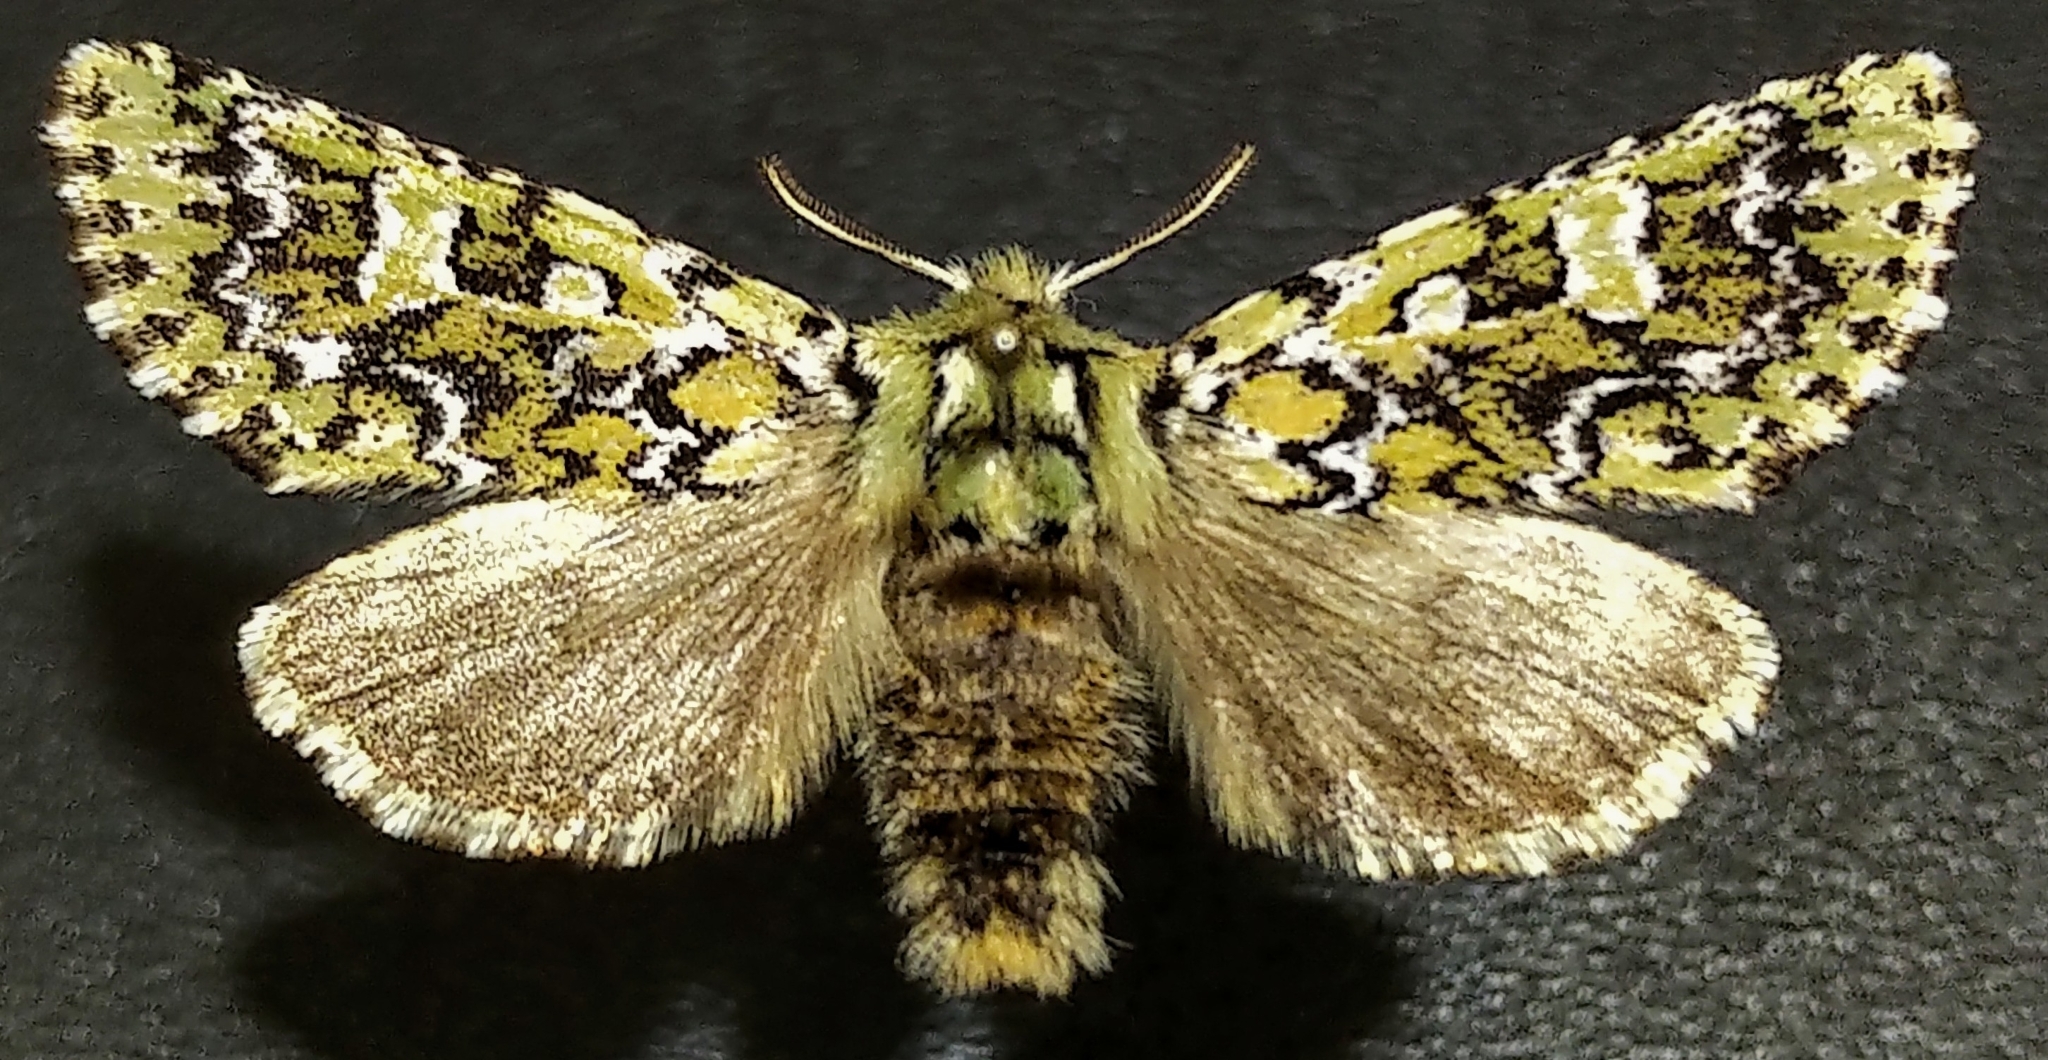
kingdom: Animalia
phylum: Arthropoda
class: Insecta
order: Lepidoptera
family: Noctuidae
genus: Feralia
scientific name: Feralia jocosa
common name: Joker
